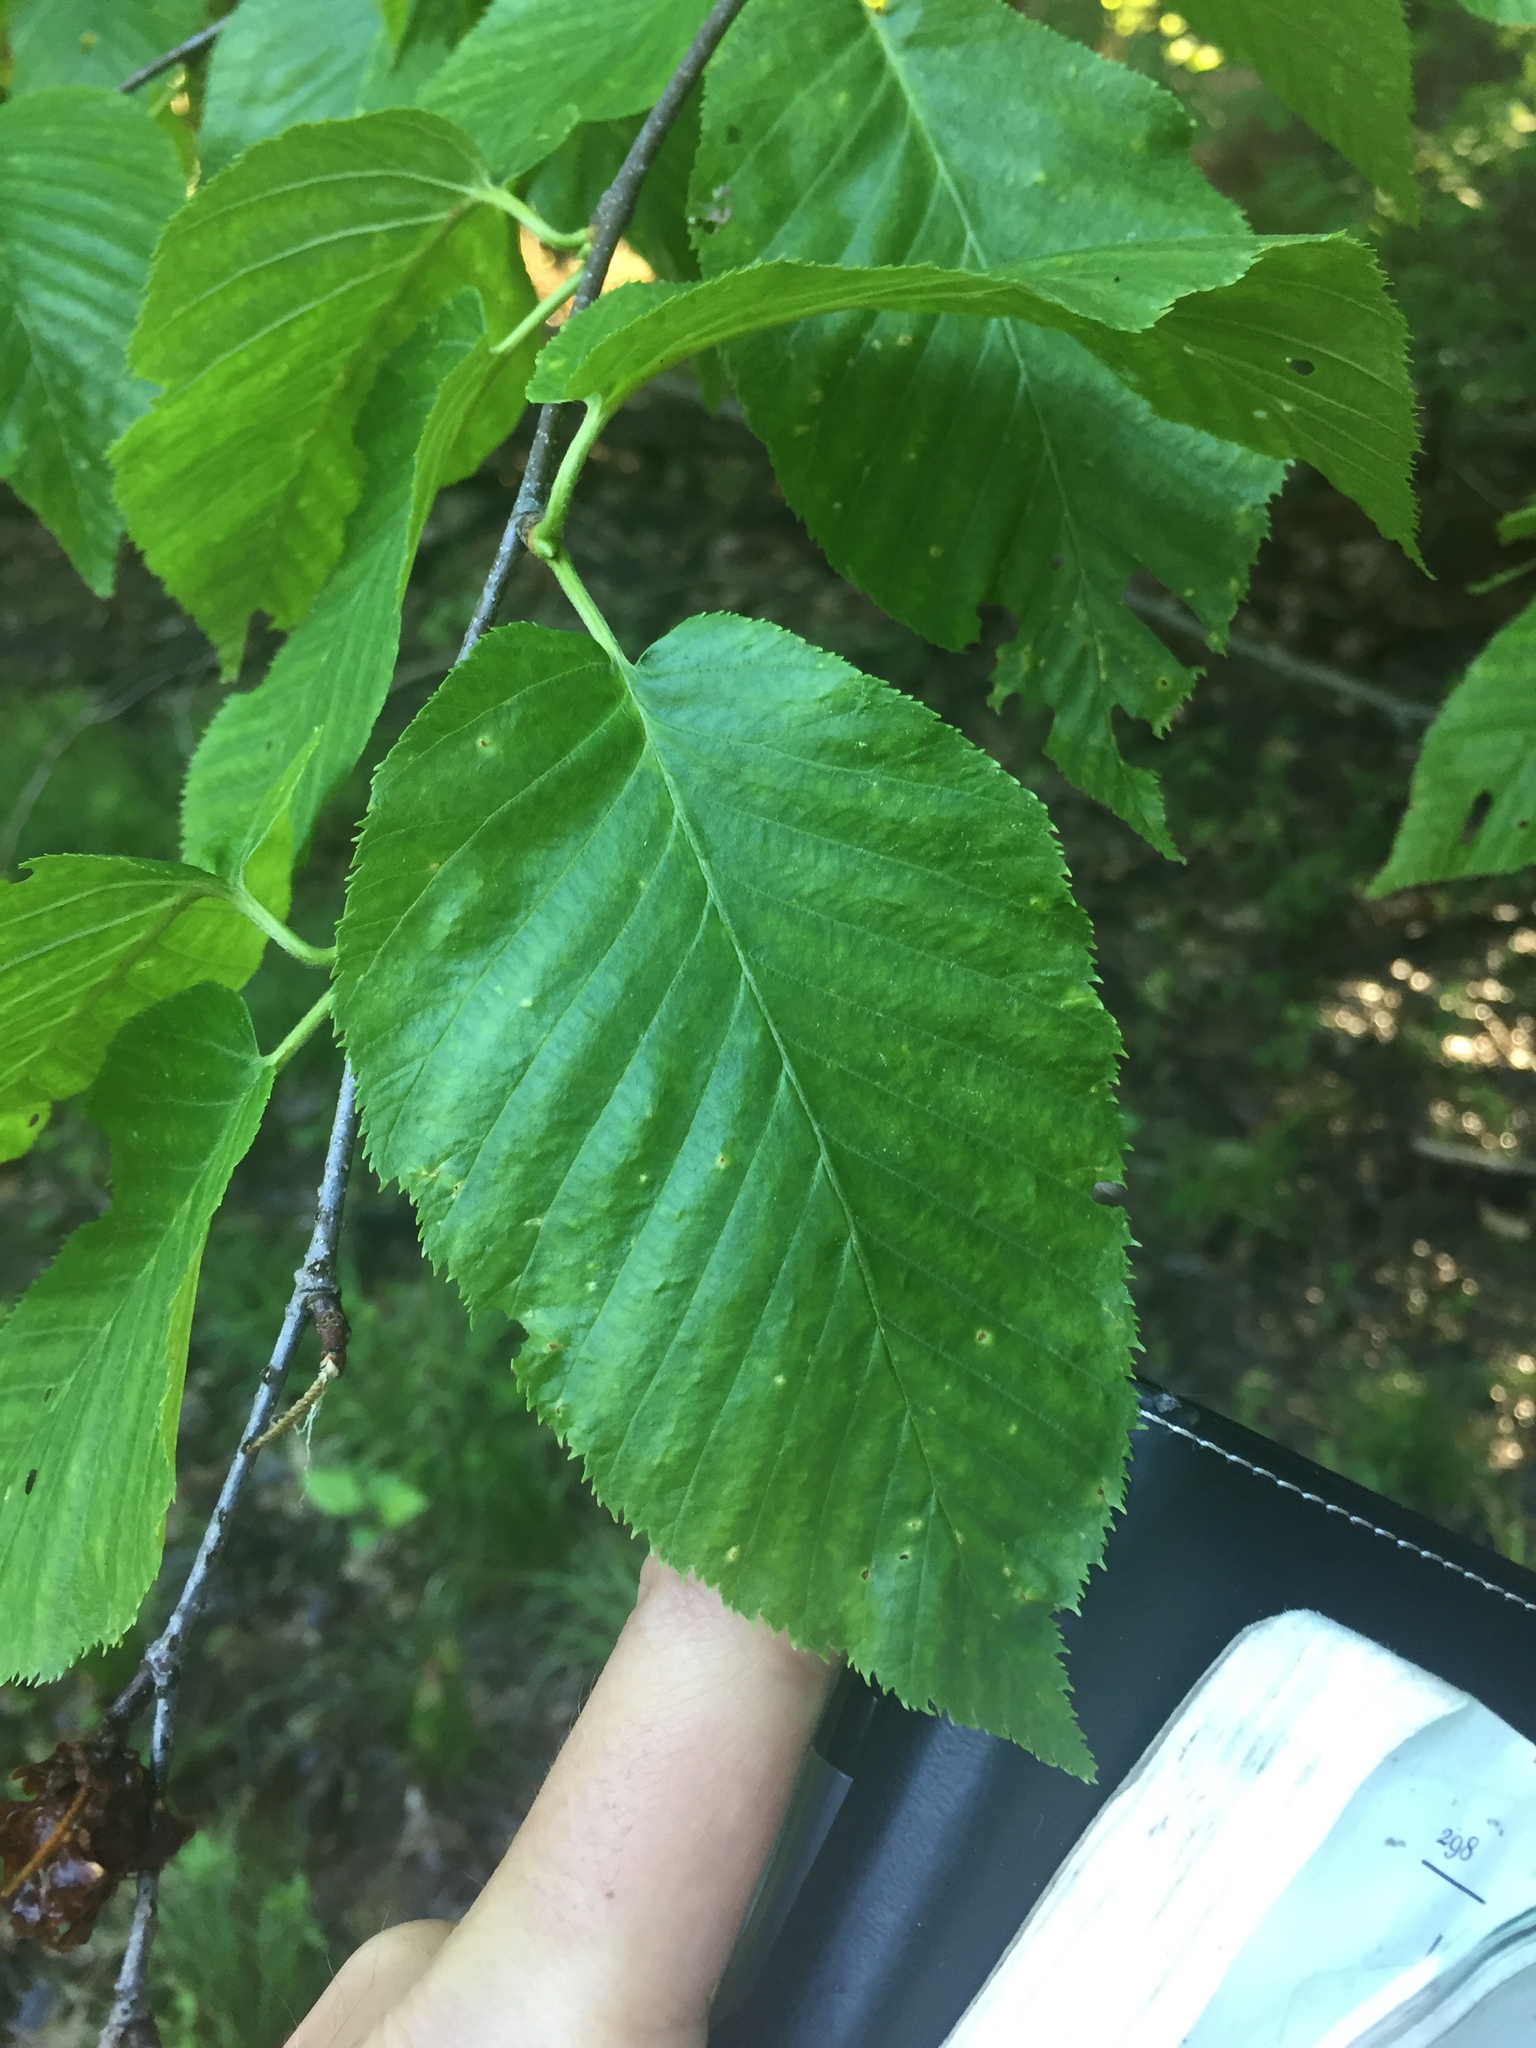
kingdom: Plantae
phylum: Tracheophyta
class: Magnoliopsida
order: Fagales
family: Betulaceae
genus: Betula
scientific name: Betula lenta
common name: Black birch
